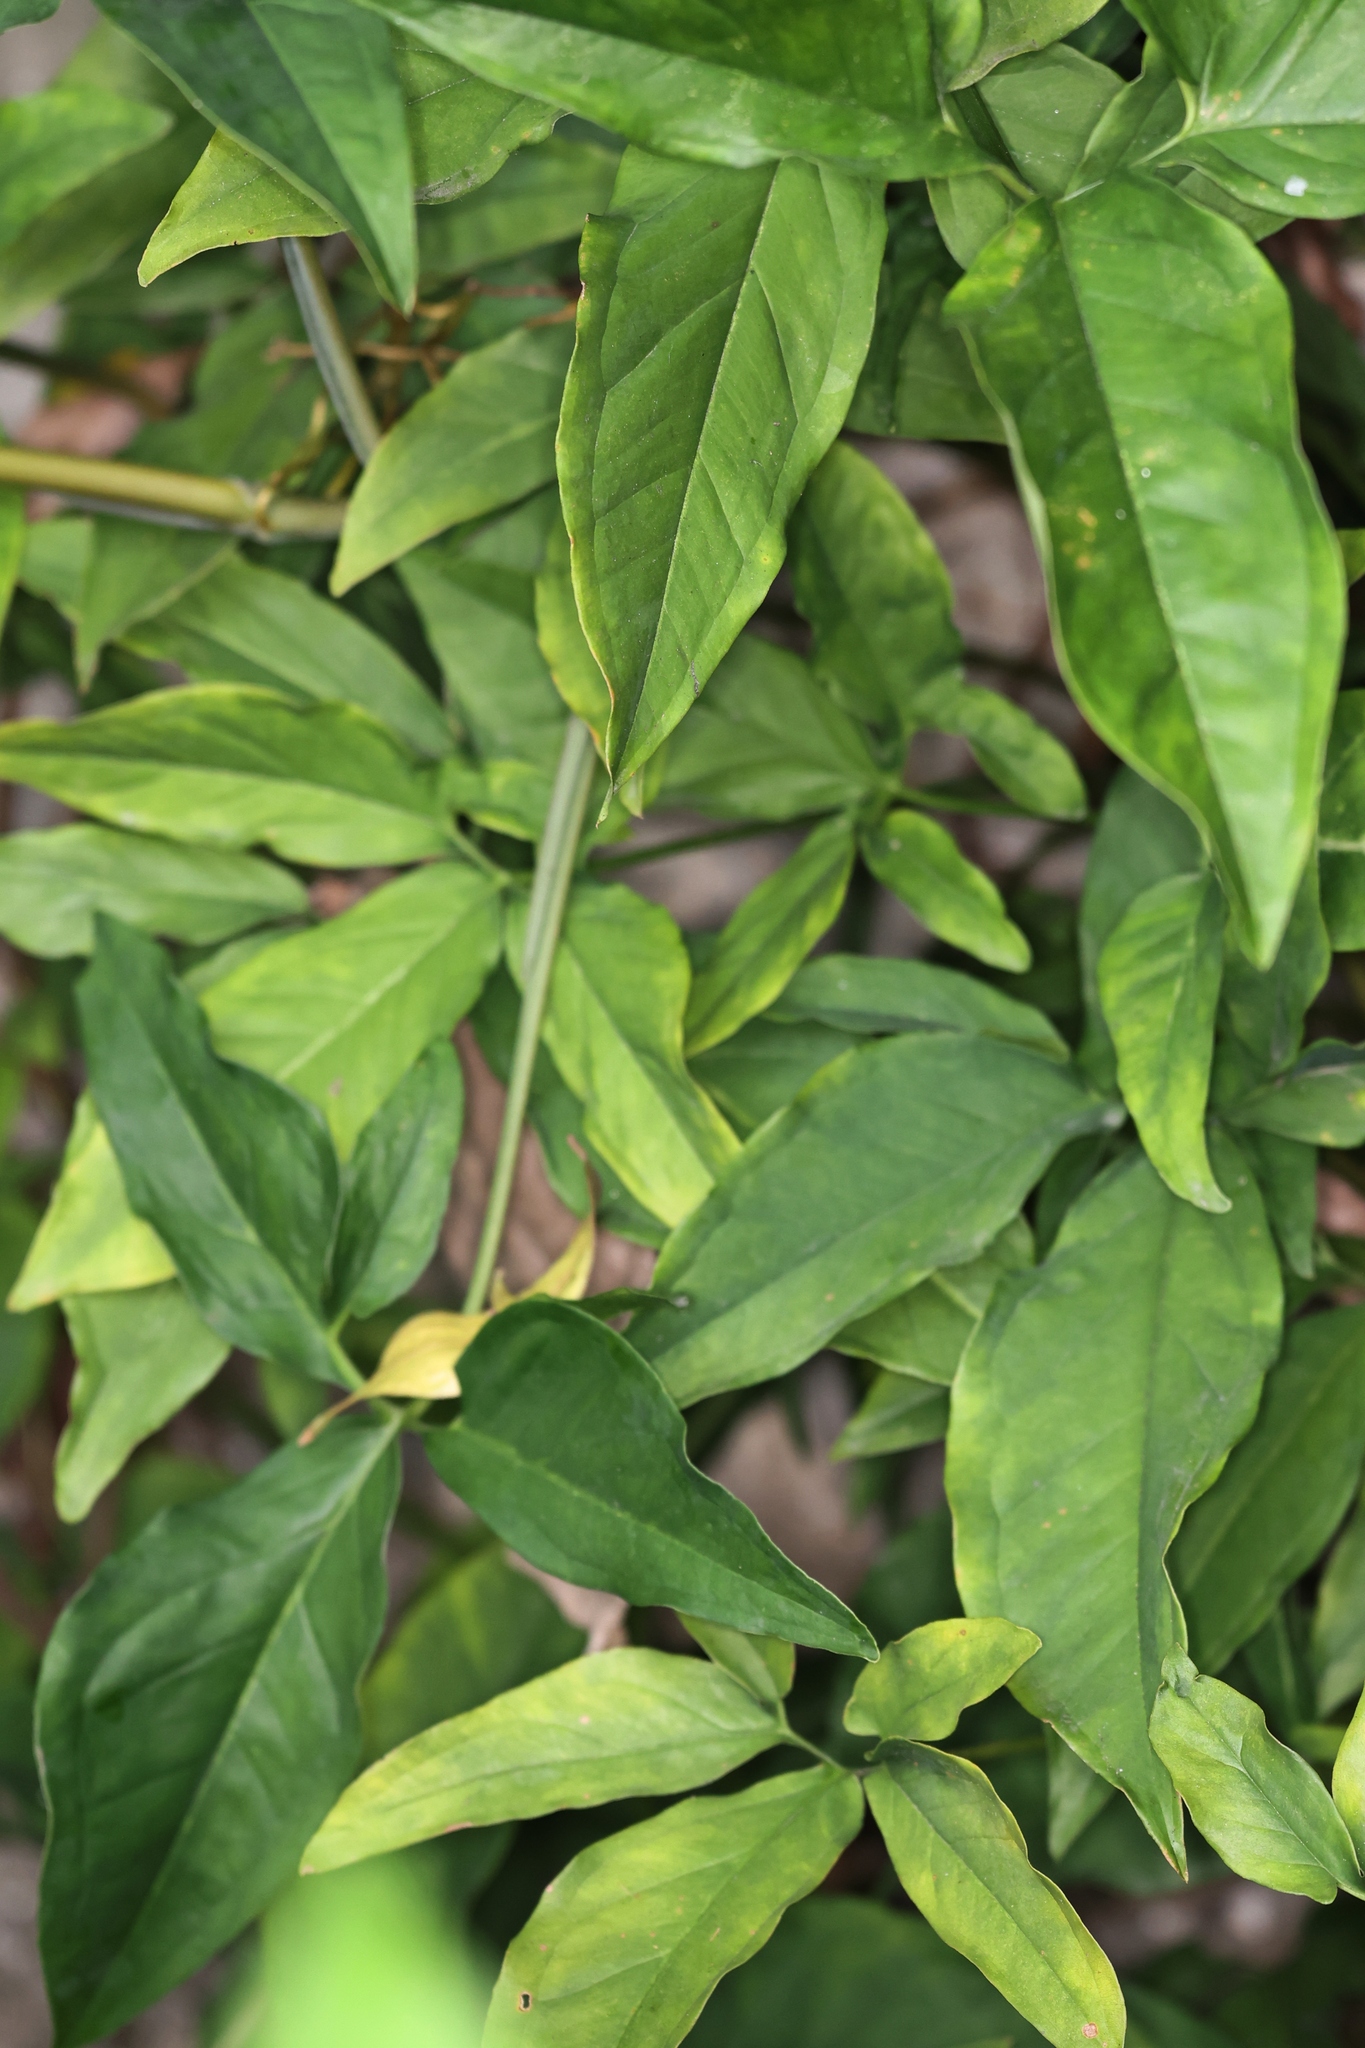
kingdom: Plantae
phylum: Tracheophyta
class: Liliopsida
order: Alismatales
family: Araceae
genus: Syngonium
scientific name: Syngonium angustatum
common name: Fivefingers
